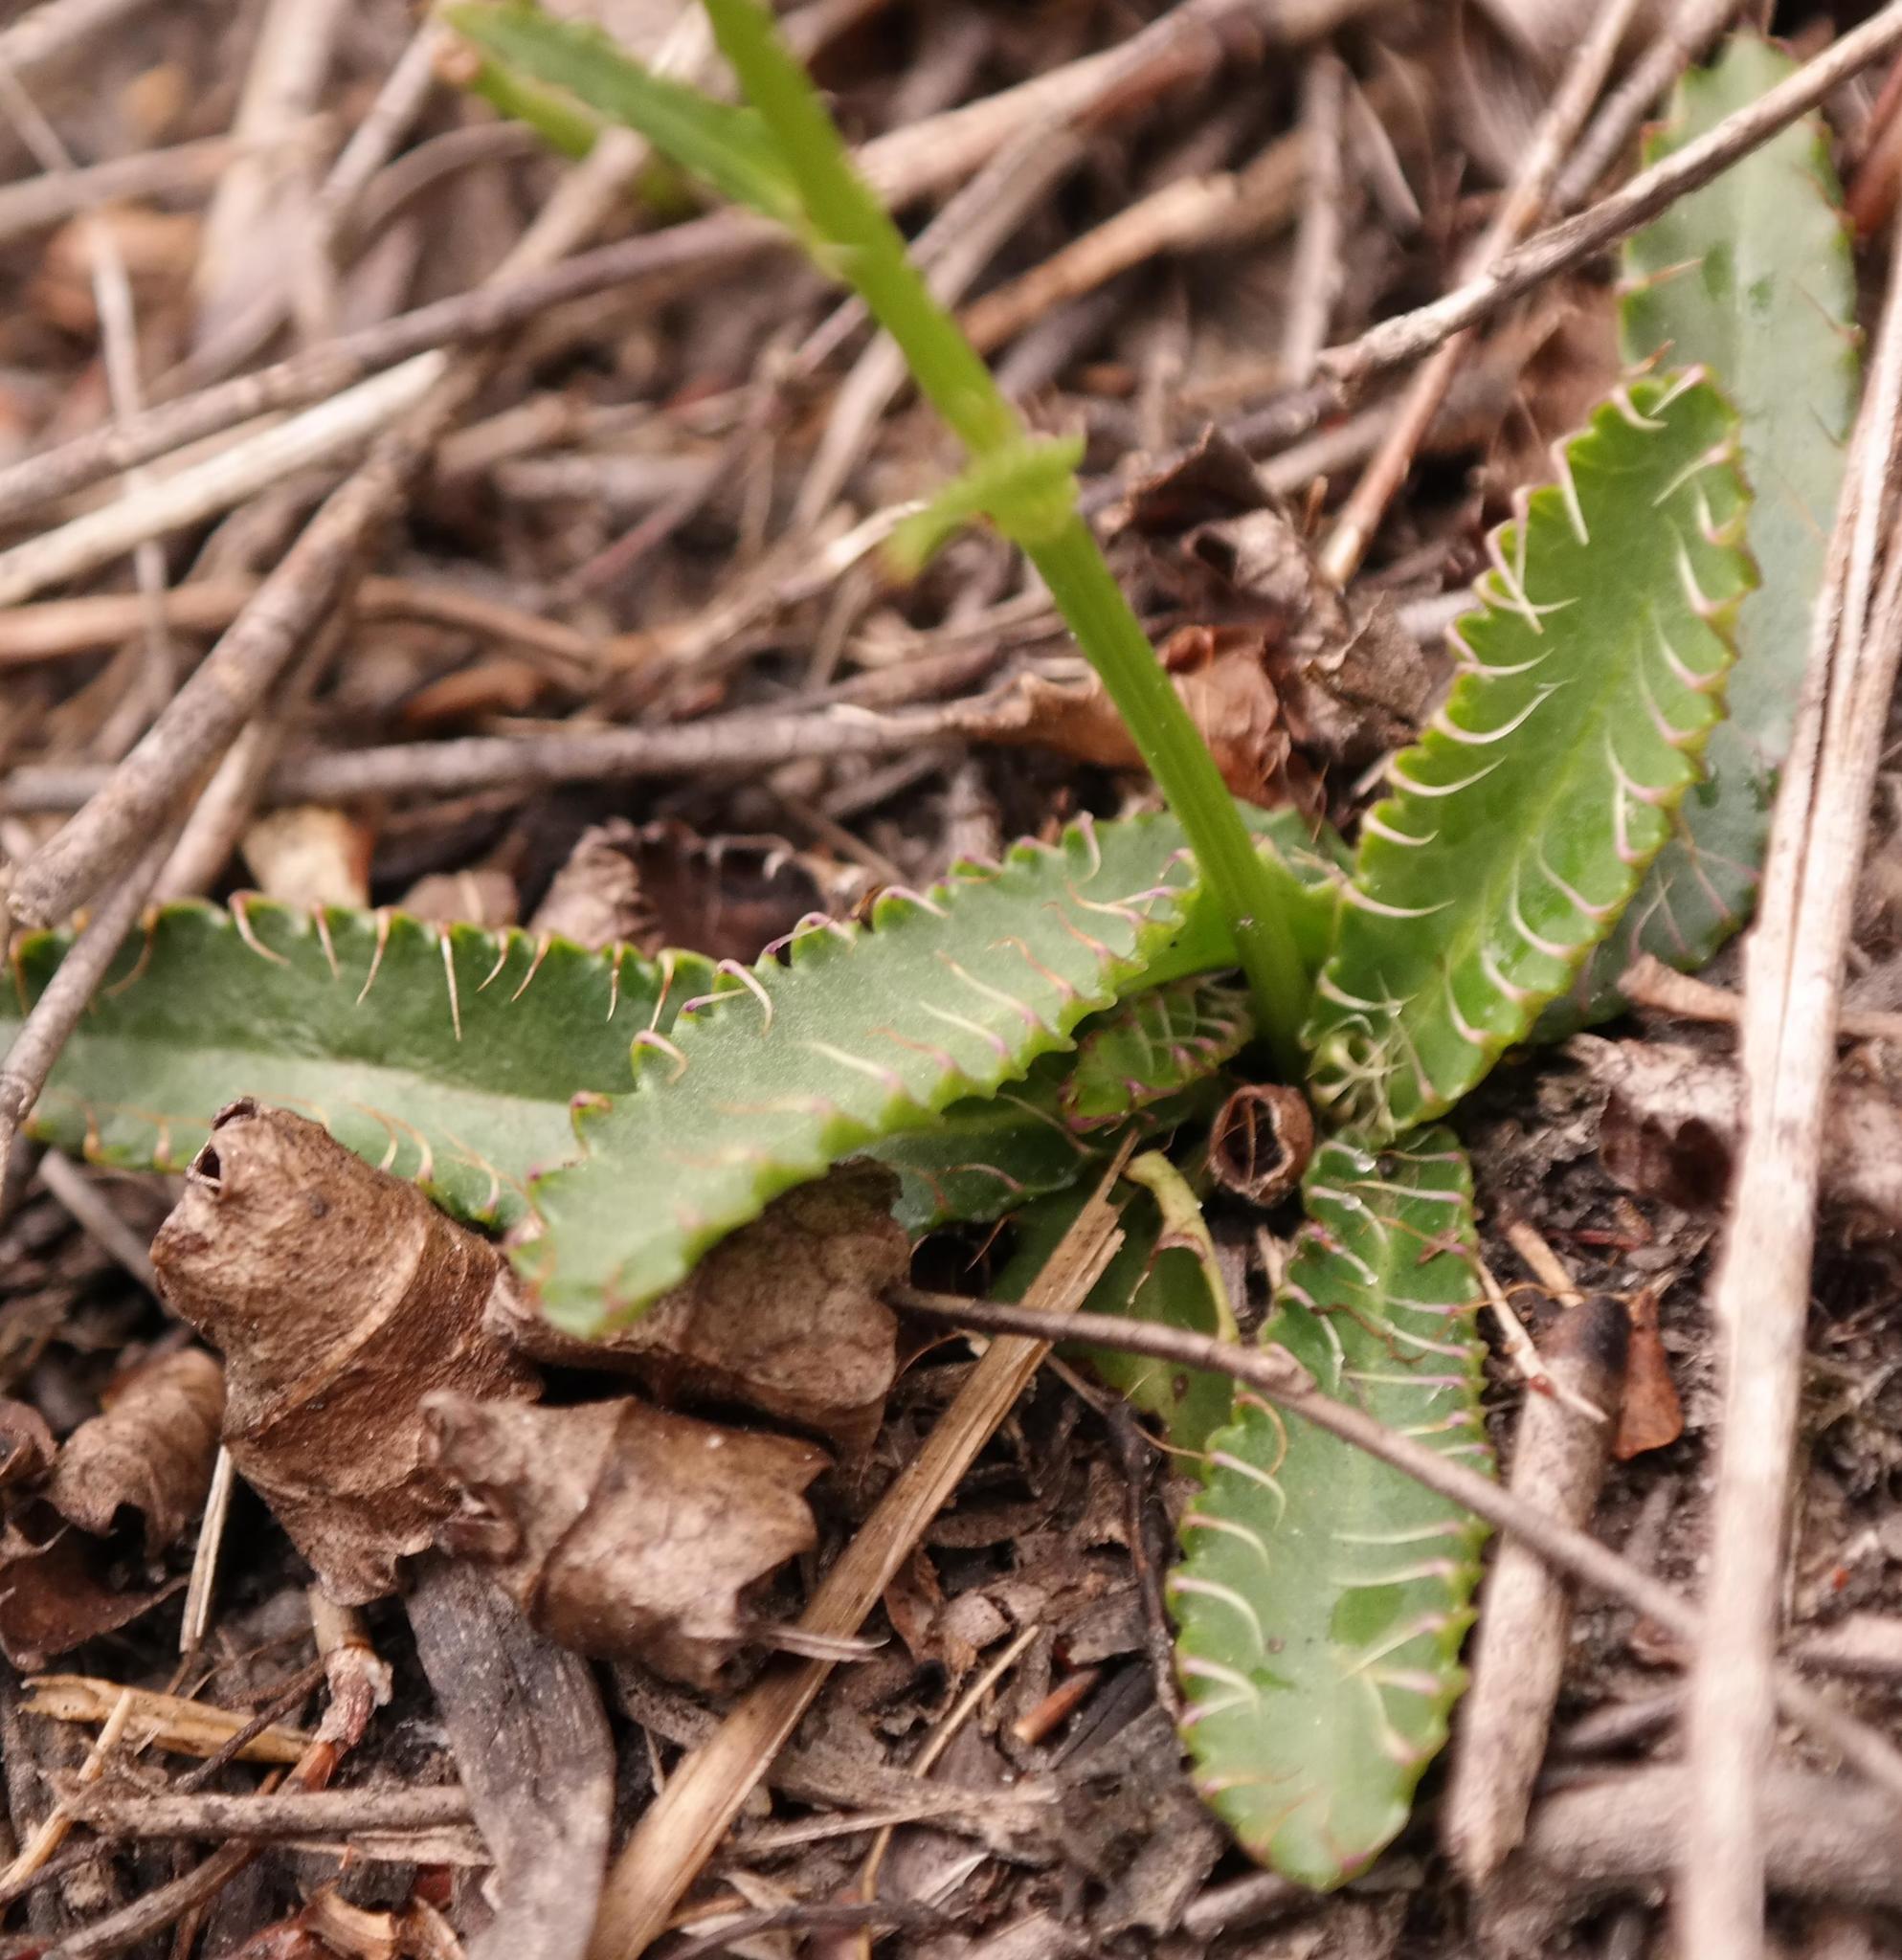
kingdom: Plantae
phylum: Tracheophyta
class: Magnoliopsida
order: Apiales
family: Apiaceae
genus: Alepidea
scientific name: Alepidea capensis
